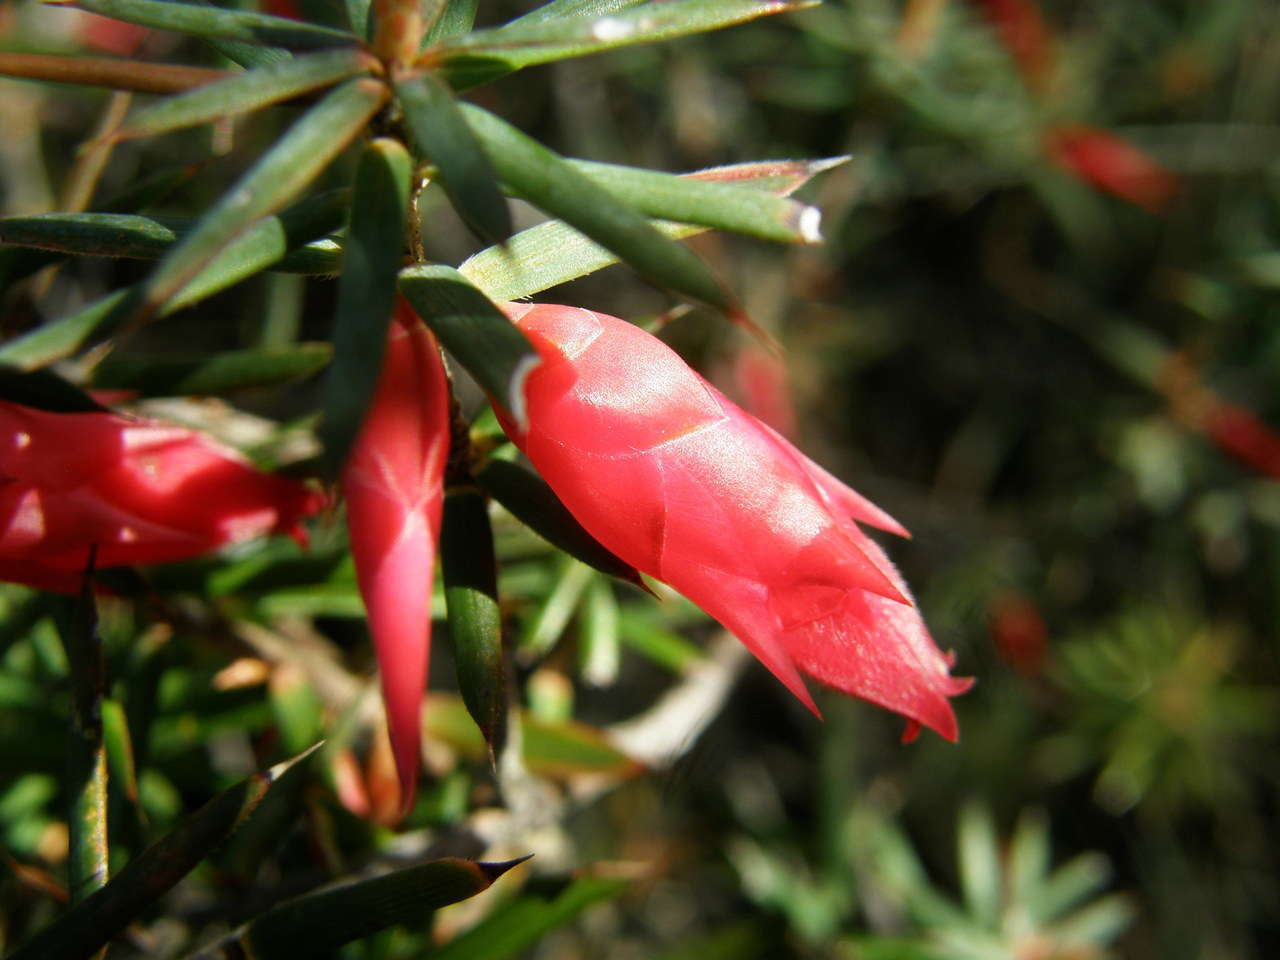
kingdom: Plantae
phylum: Tracheophyta
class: Magnoliopsida
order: Ericales
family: Ericaceae
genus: Stenanthera
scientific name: Stenanthera conostephioides
